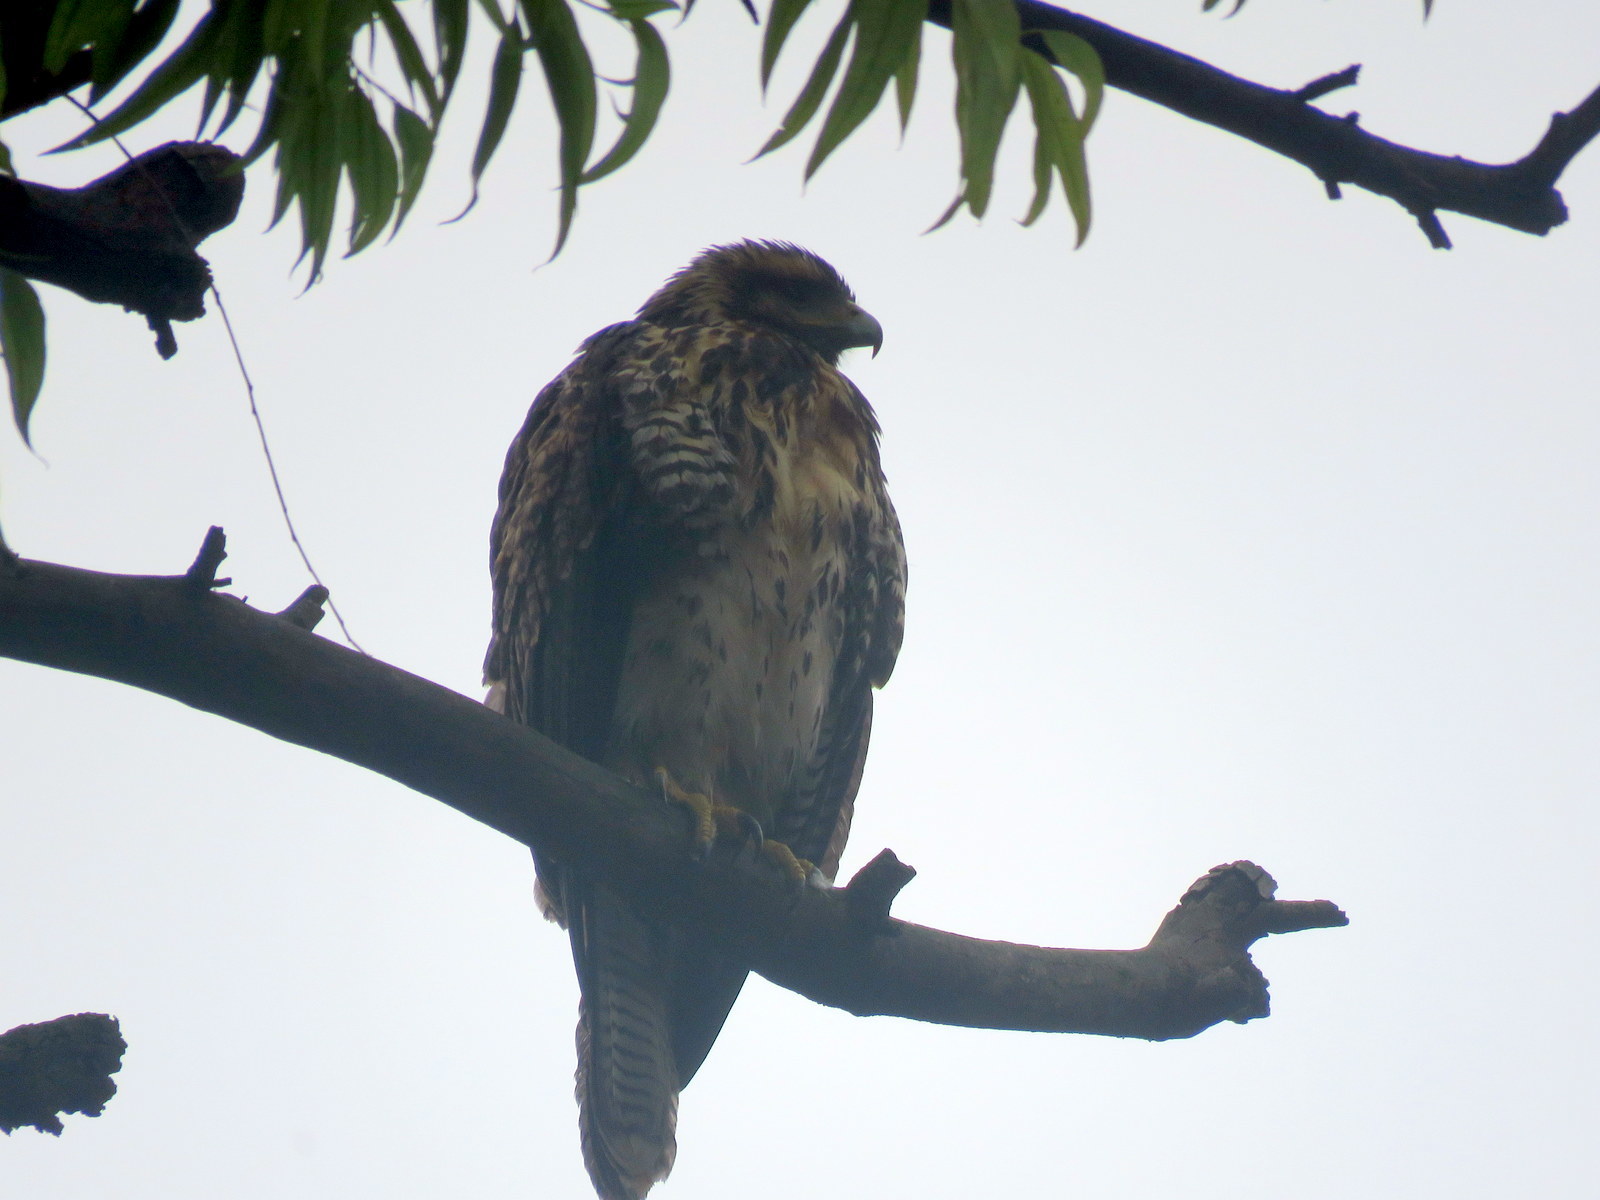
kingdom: Animalia
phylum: Chordata
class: Aves
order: Accipitriformes
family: Accipitridae
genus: Parabuteo
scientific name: Parabuteo unicinctus
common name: Harris's hawk
